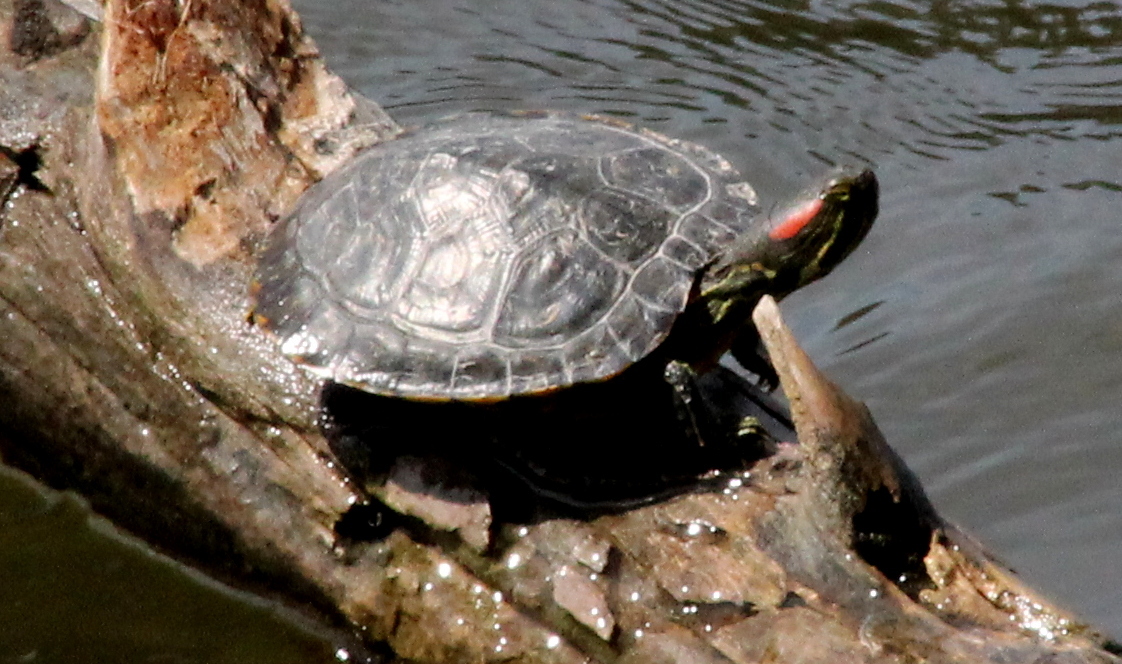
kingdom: Animalia
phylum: Chordata
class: Testudines
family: Emydidae
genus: Trachemys
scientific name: Trachemys scripta
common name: Slider
